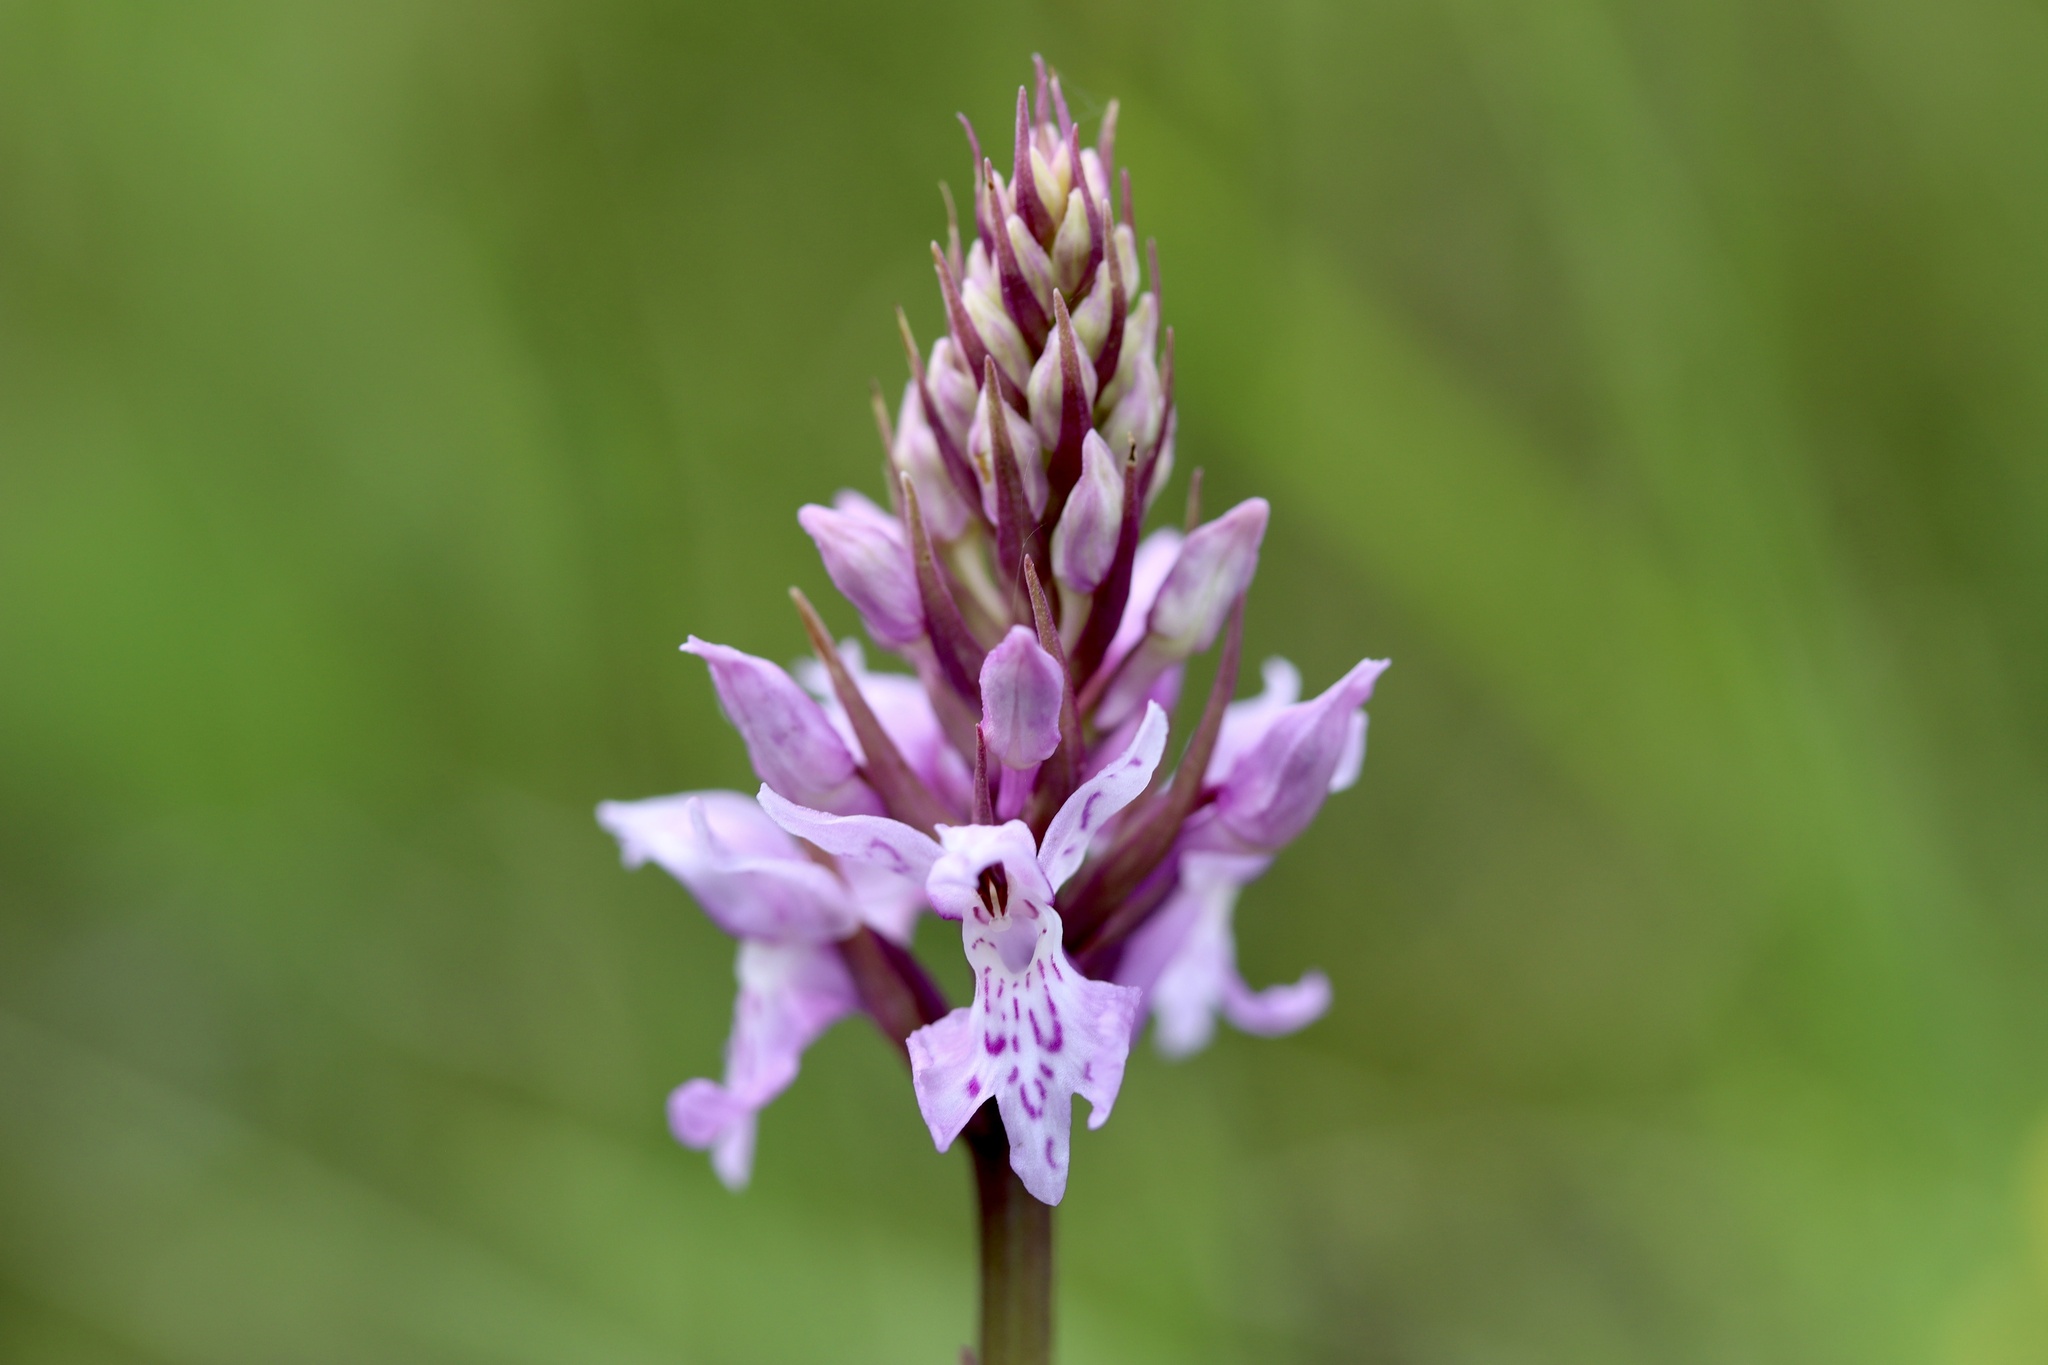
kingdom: Plantae
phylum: Tracheophyta
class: Liliopsida
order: Asparagales
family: Orchidaceae
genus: Dactylorhiza
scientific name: Dactylorhiza maculata
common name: Heath spotted-orchid
